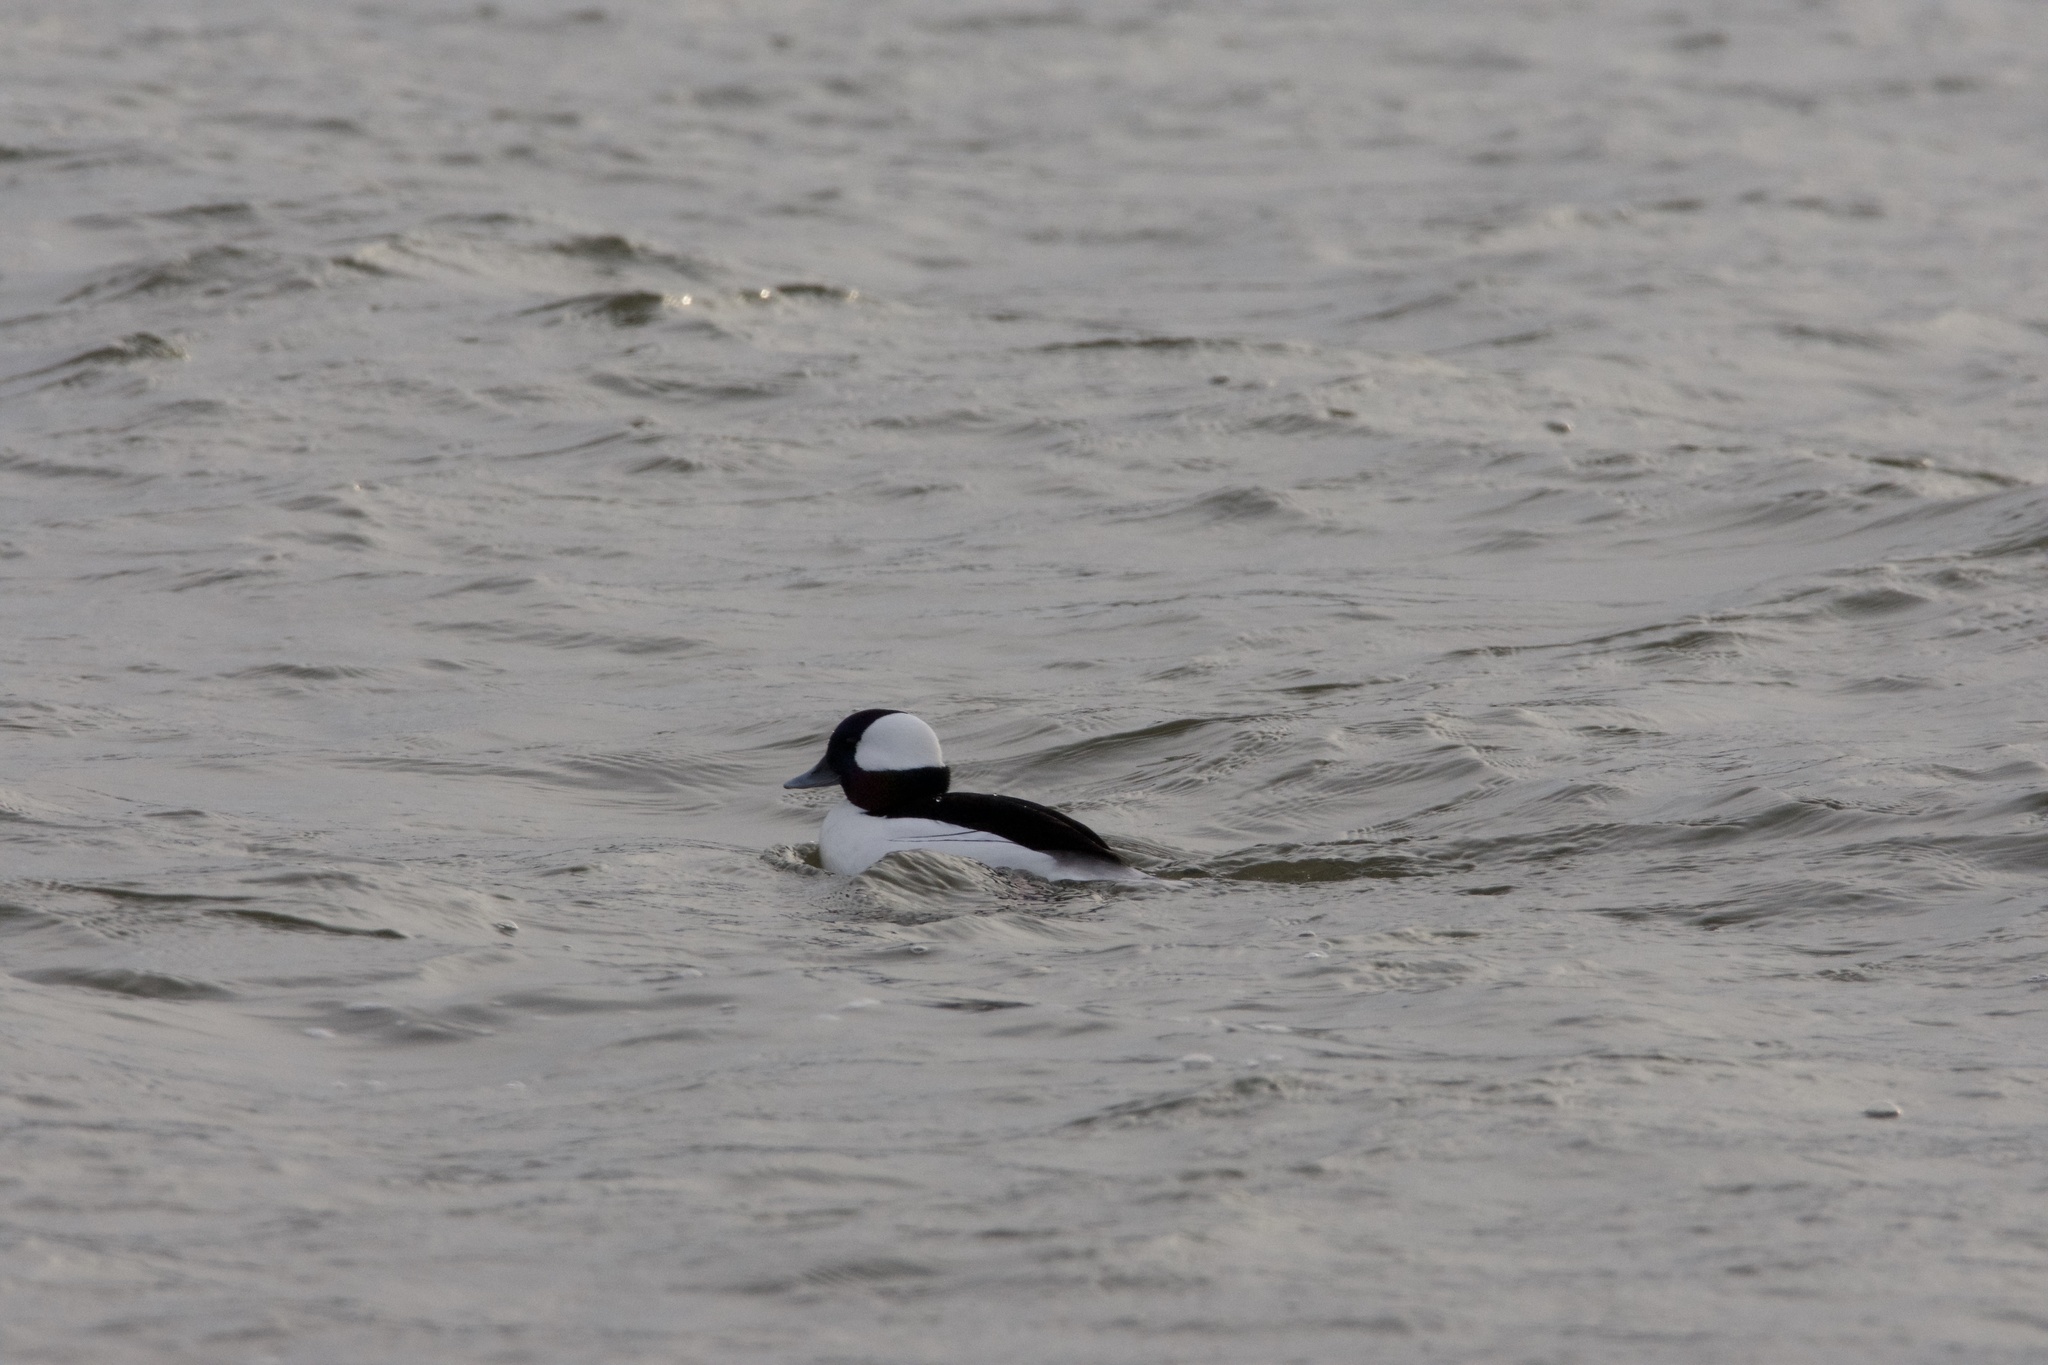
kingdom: Animalia
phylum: Chordata
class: Aves
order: Anseriformes
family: Anatidae
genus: Bucephala
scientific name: Bucephala albeola
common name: Bufflehead
